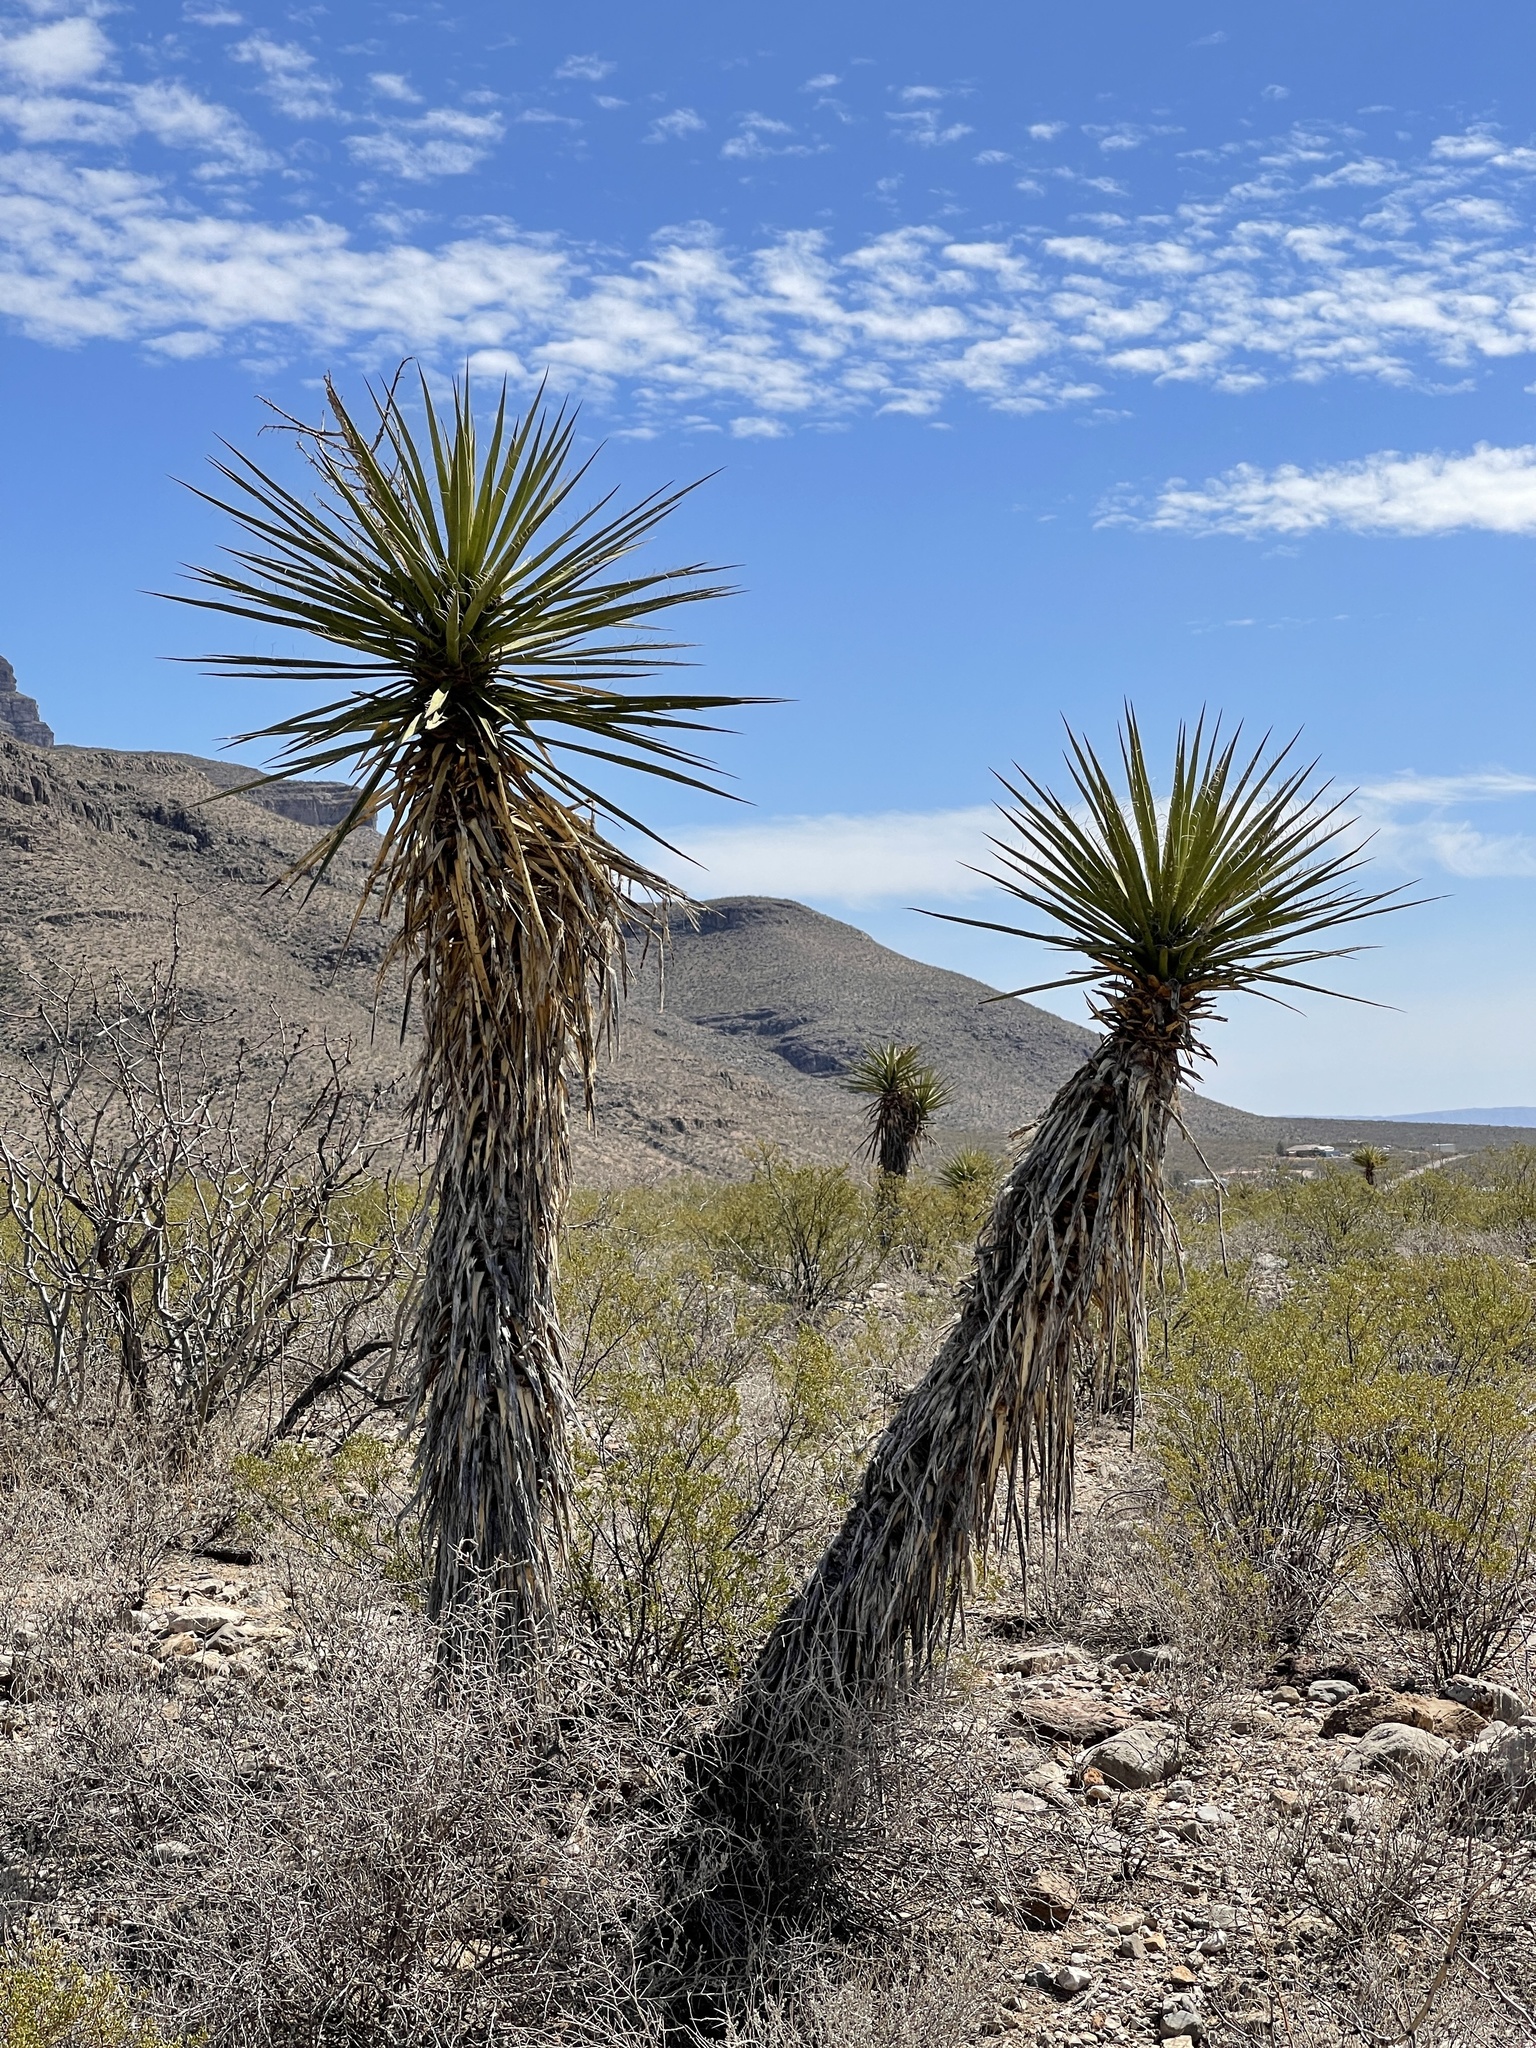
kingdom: Plantae
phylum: Tracheophyta
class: Liliopsida
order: Asparagales
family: Asparagaceae
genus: Yucca
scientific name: Yucca treculiana
